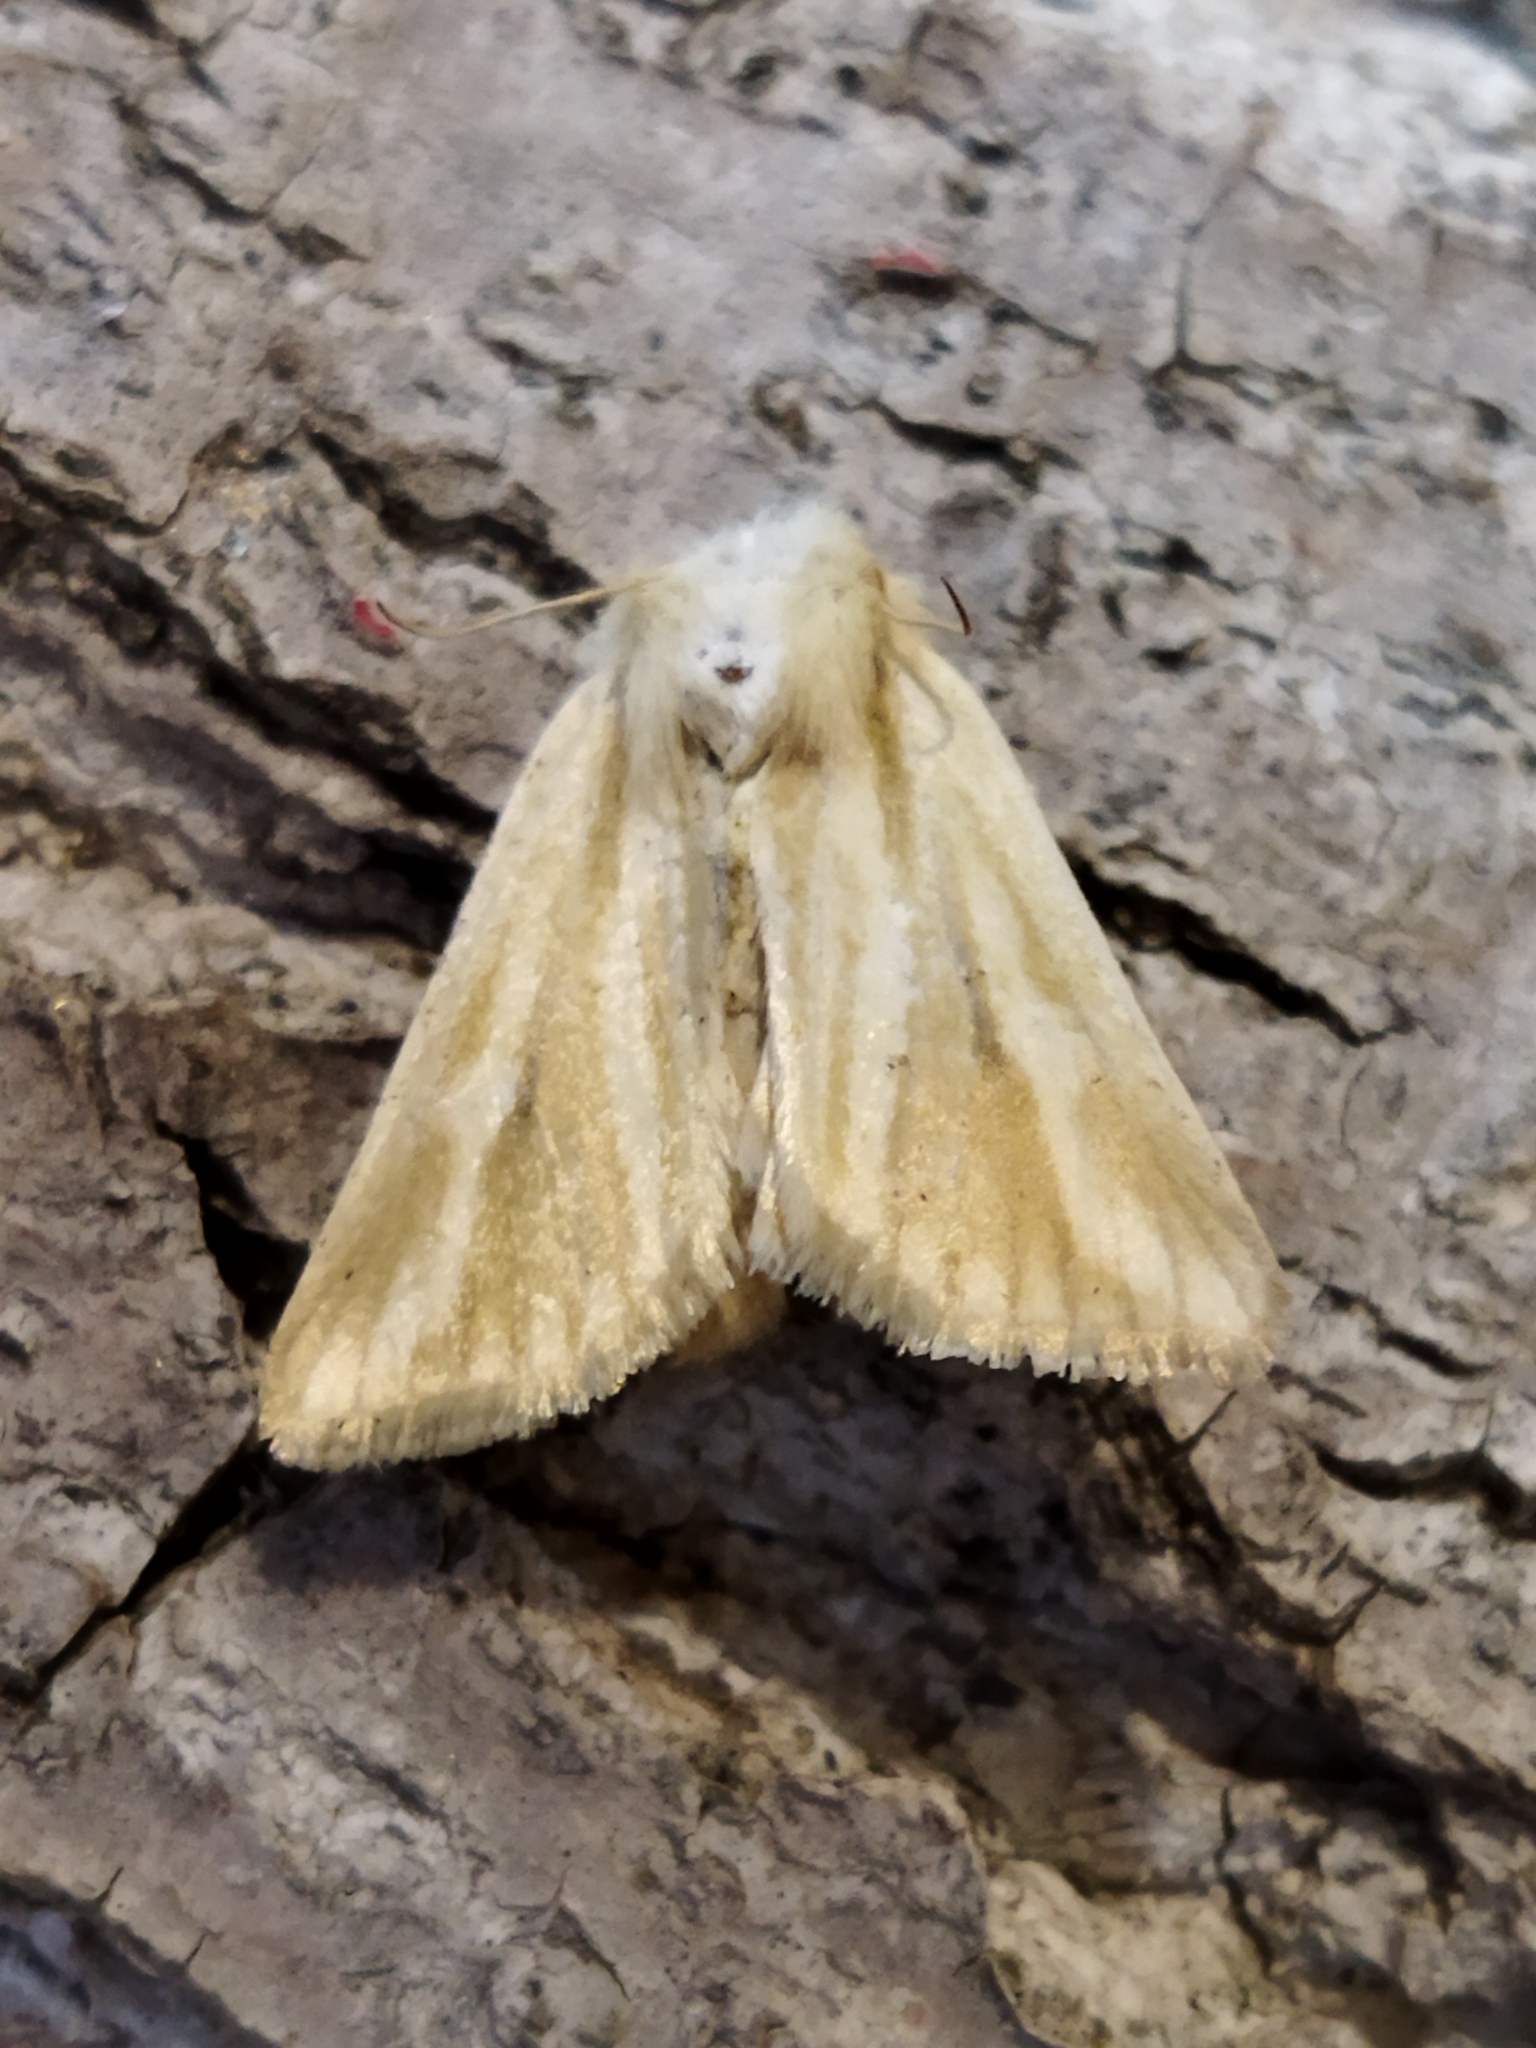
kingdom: Animalia
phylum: Arthropoda
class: Insecta
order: Lepidoptera
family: Noctuidae
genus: Oria
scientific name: Oria musculosa
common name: Brighton wainscot
